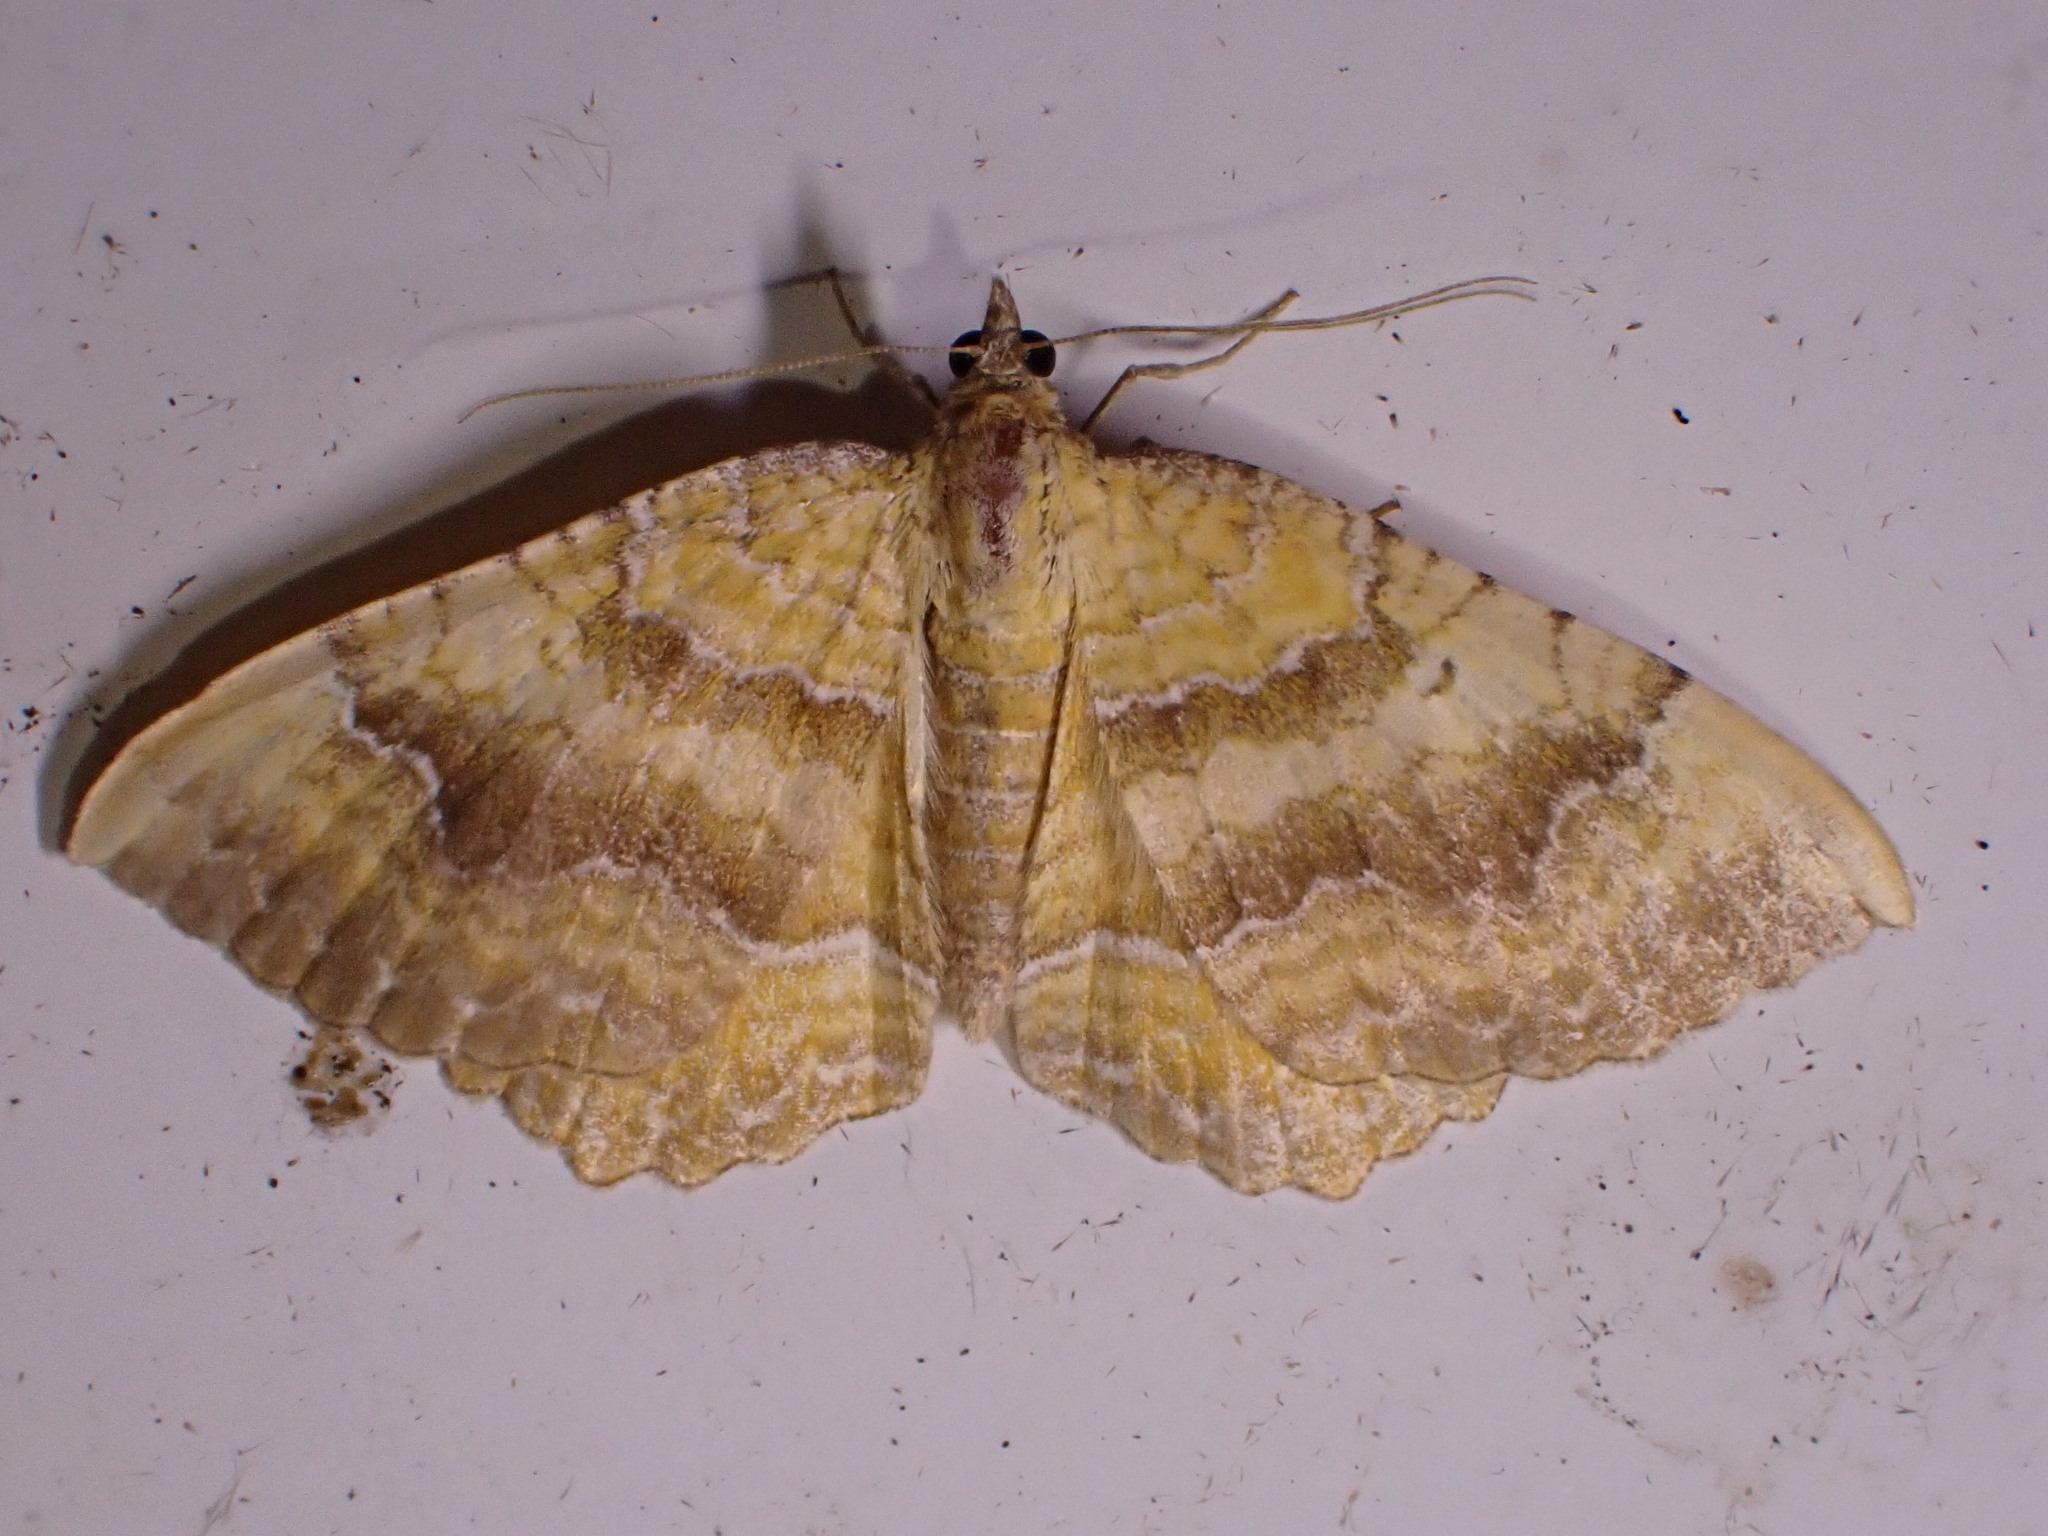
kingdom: Animalia
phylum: Arthropoda
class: Insecta
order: Lepidoptera
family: Geometridae
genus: Camptogramma
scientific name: Camptogramma bilineata
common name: Yellow shell
